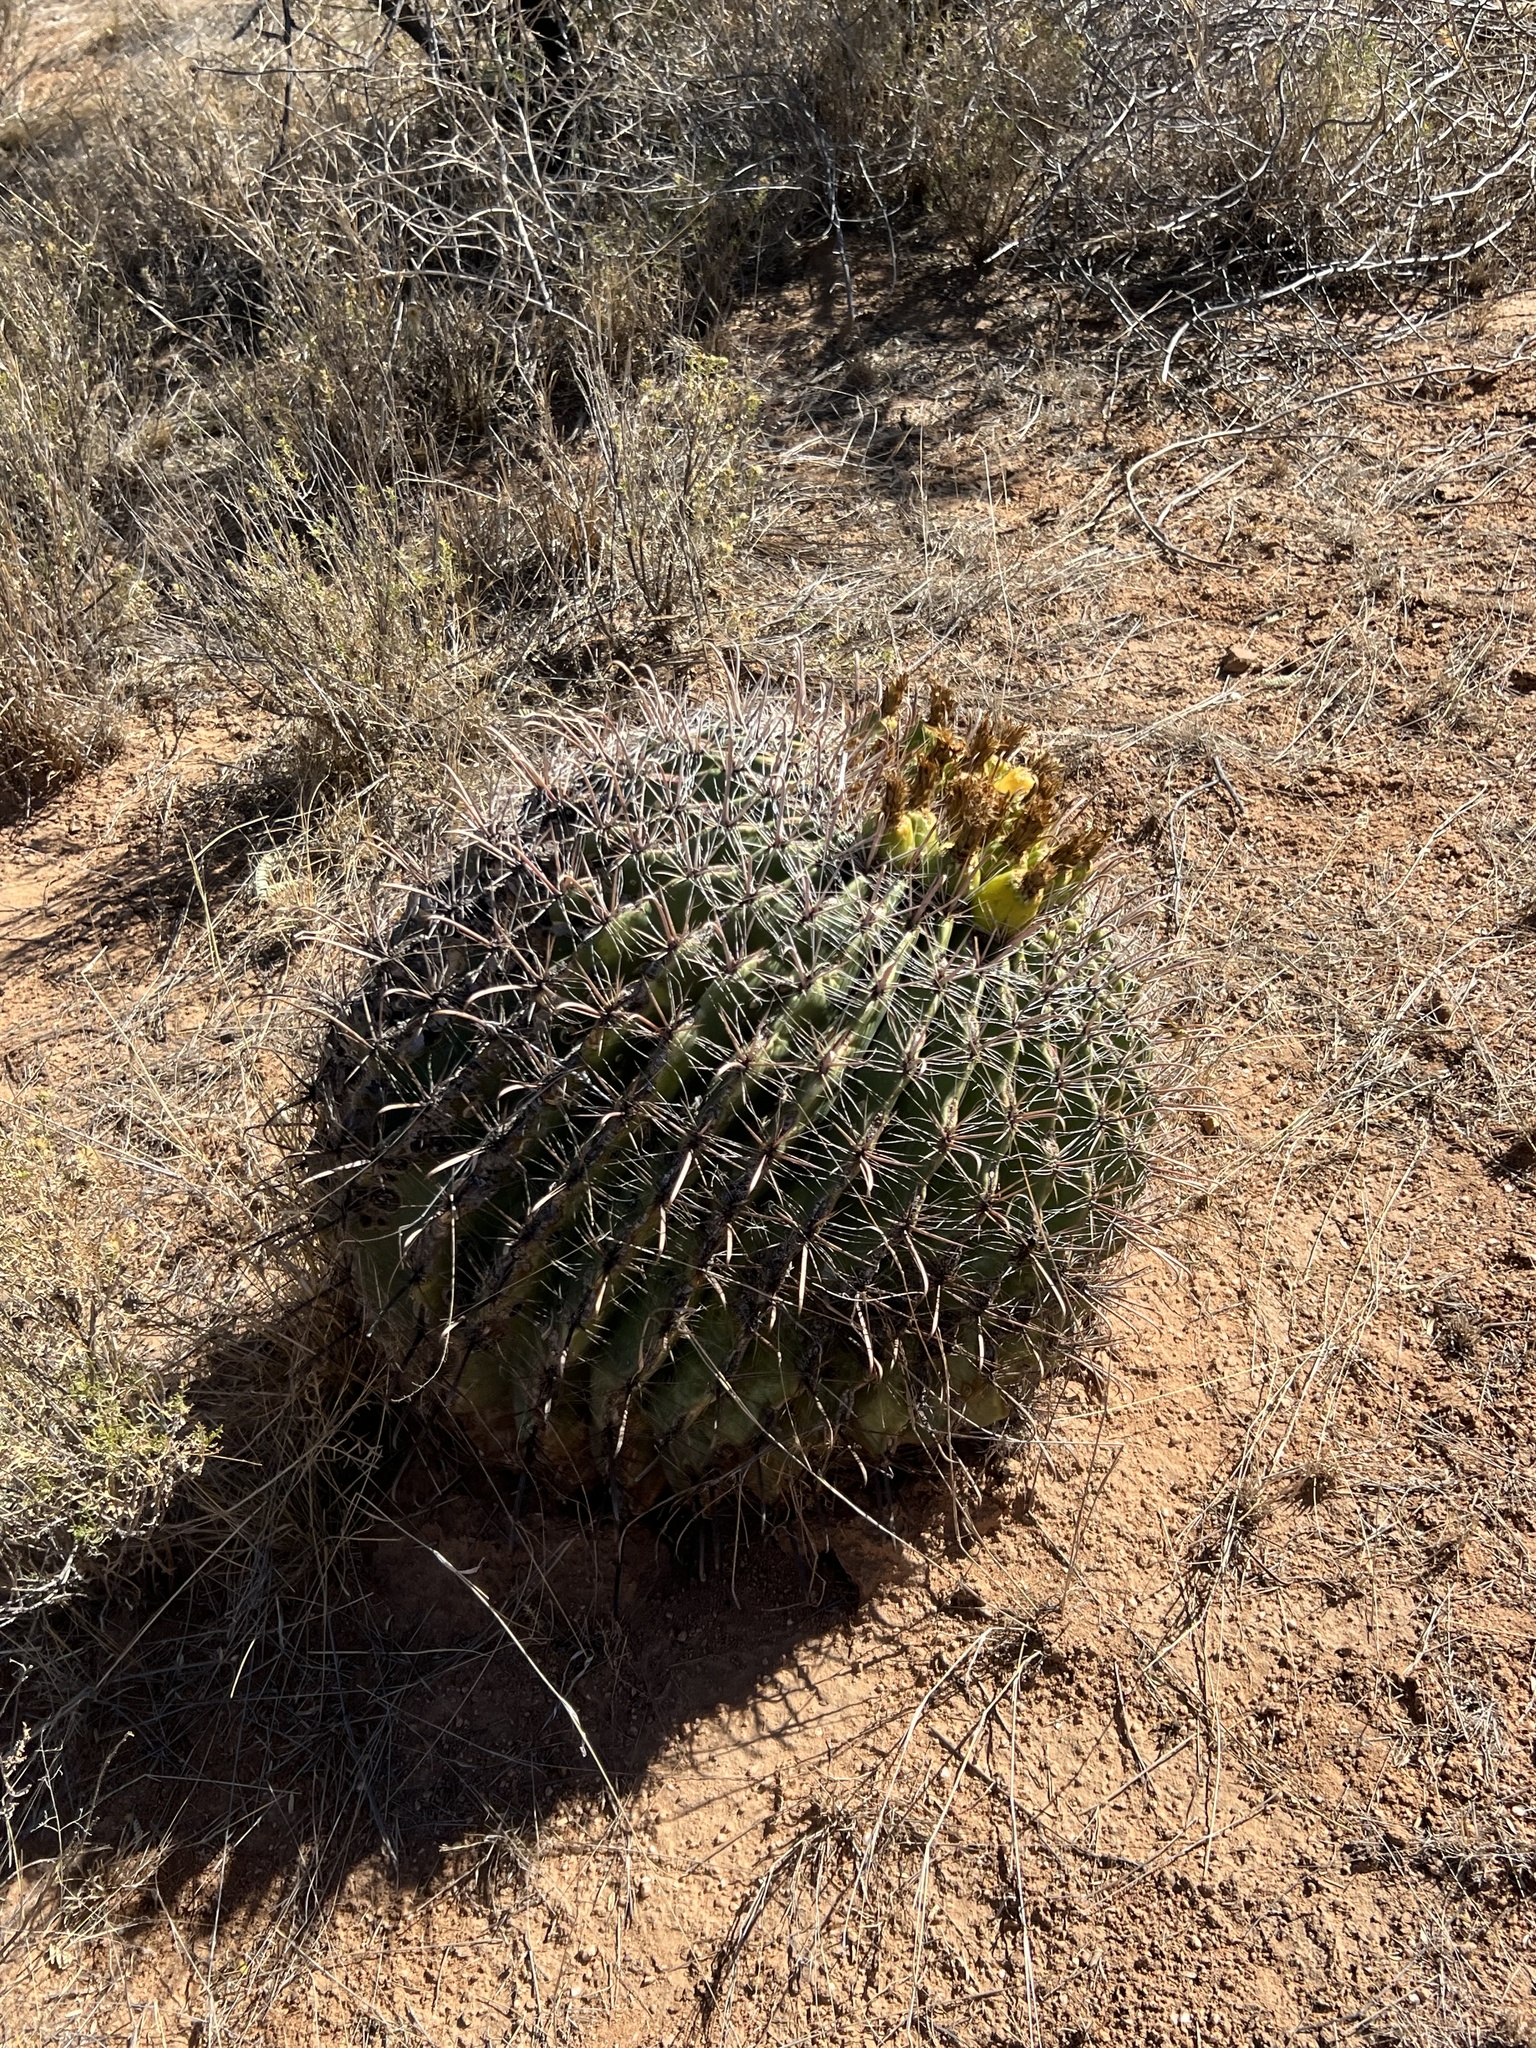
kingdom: Plantae
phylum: Tracheophyta
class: Magnoliopsida
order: Caryophyllales
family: Cactaceae
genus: Ferocactus
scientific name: Ferocactus wislizeni
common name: Candy barrel cactus
